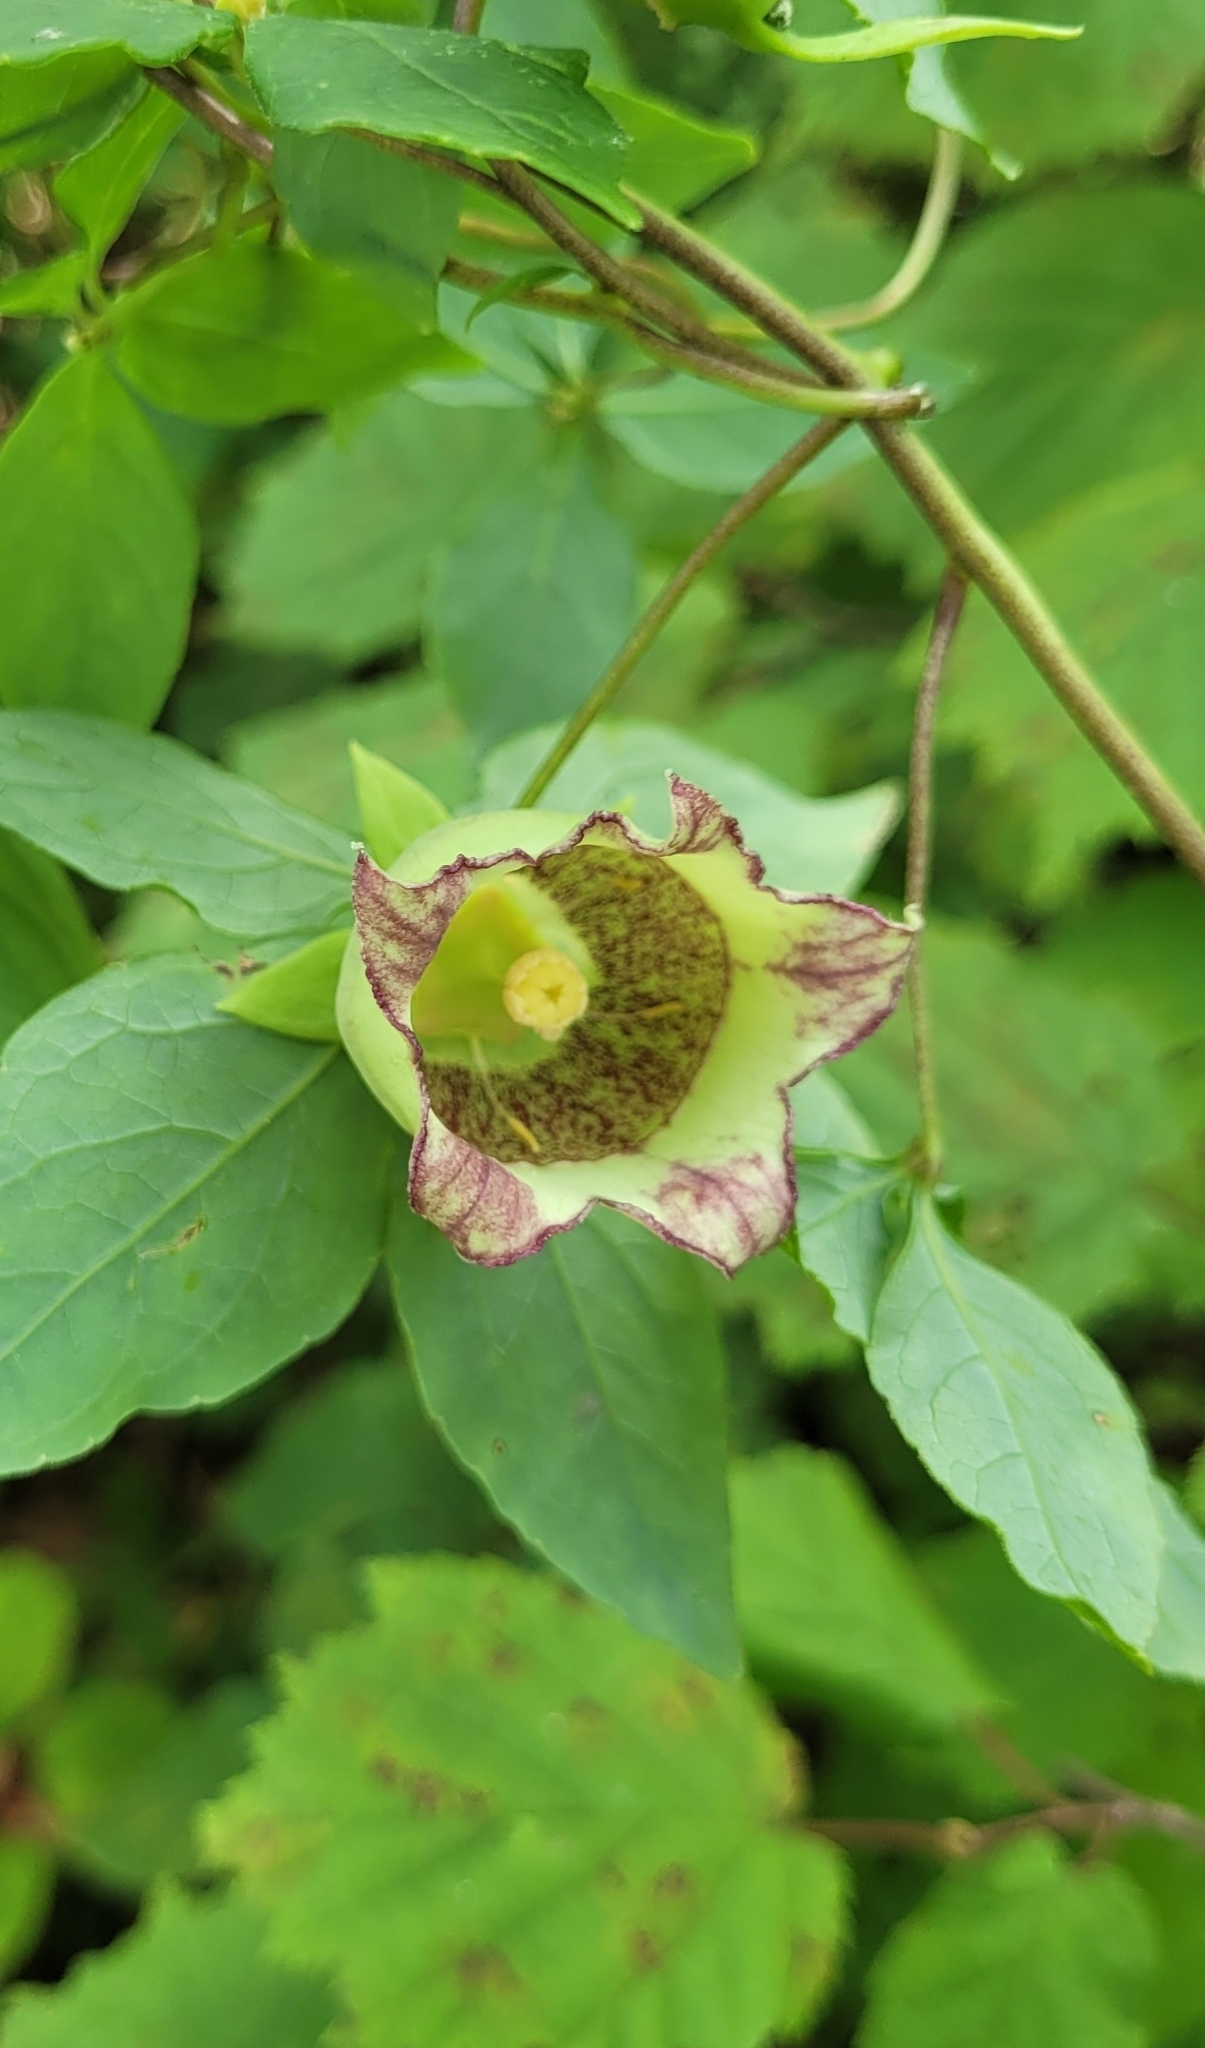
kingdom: Plantae
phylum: Tracheophyta
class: Magnoliopsida
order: Asterales
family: Campanulaceae
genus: Codonopsis
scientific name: Codonopsis lanceolata
